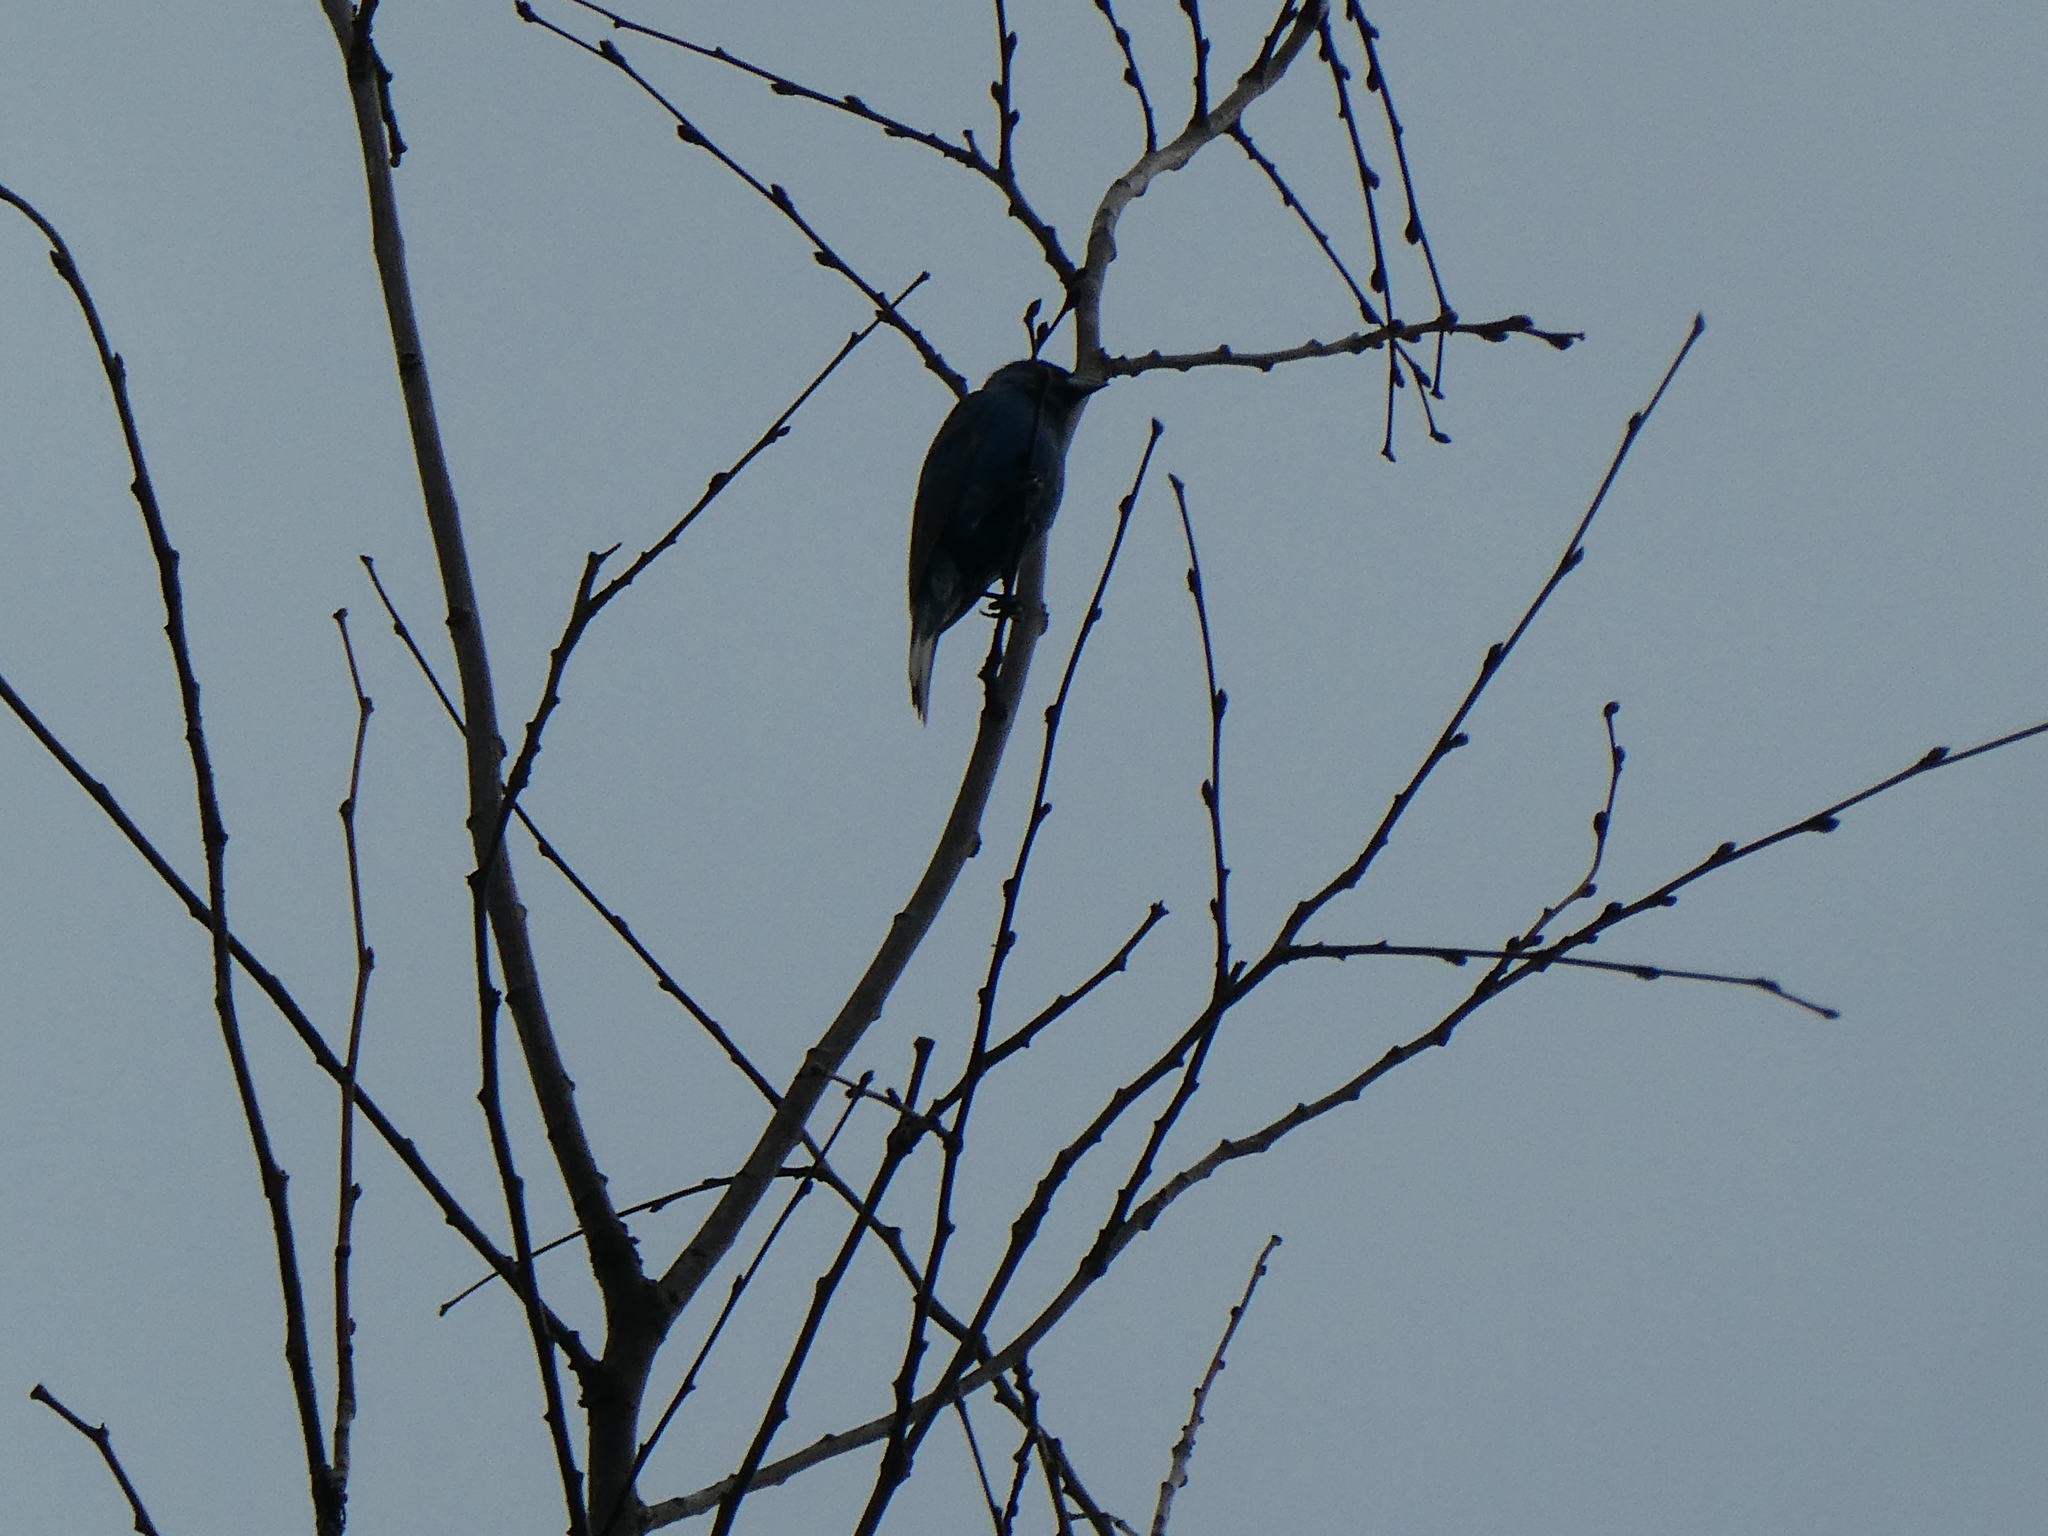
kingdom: Animalia
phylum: Chordata
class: Aves
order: Passeriformes
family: Cardinalidae
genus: Passerina
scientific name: Passerina cyanea
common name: Indigo bunting
